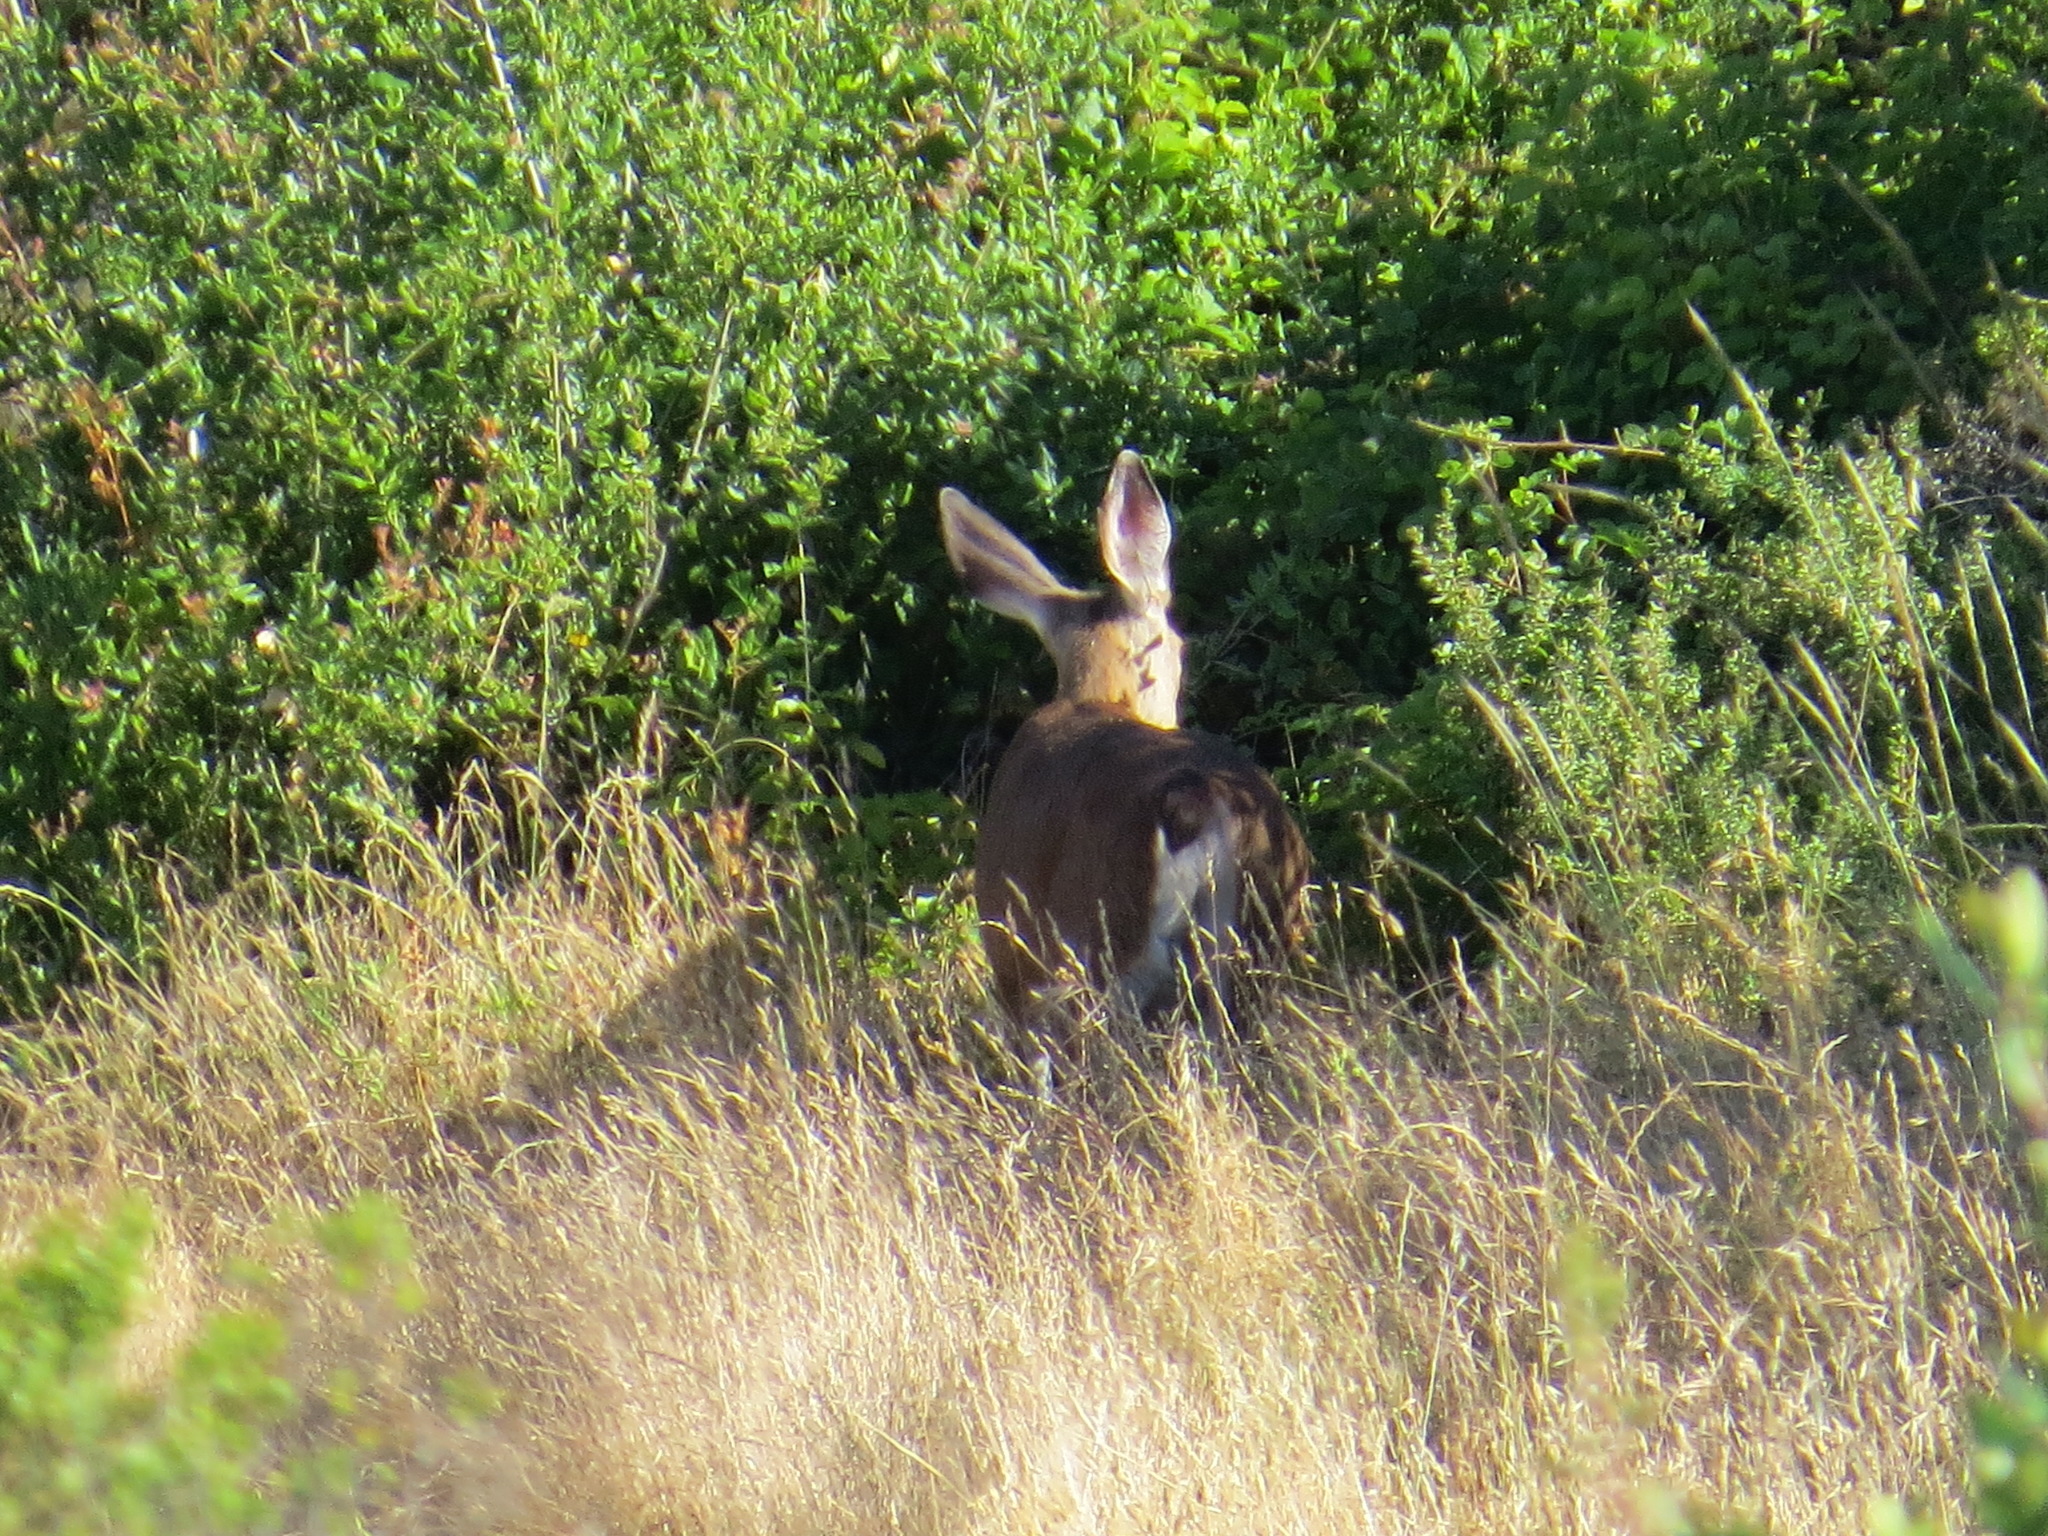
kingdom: Animalia
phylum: Chordata
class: Mammalia
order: Artiodactyla
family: Cervidae
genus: Odocoileus
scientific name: Odocoileus hemionus
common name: Mule deer
